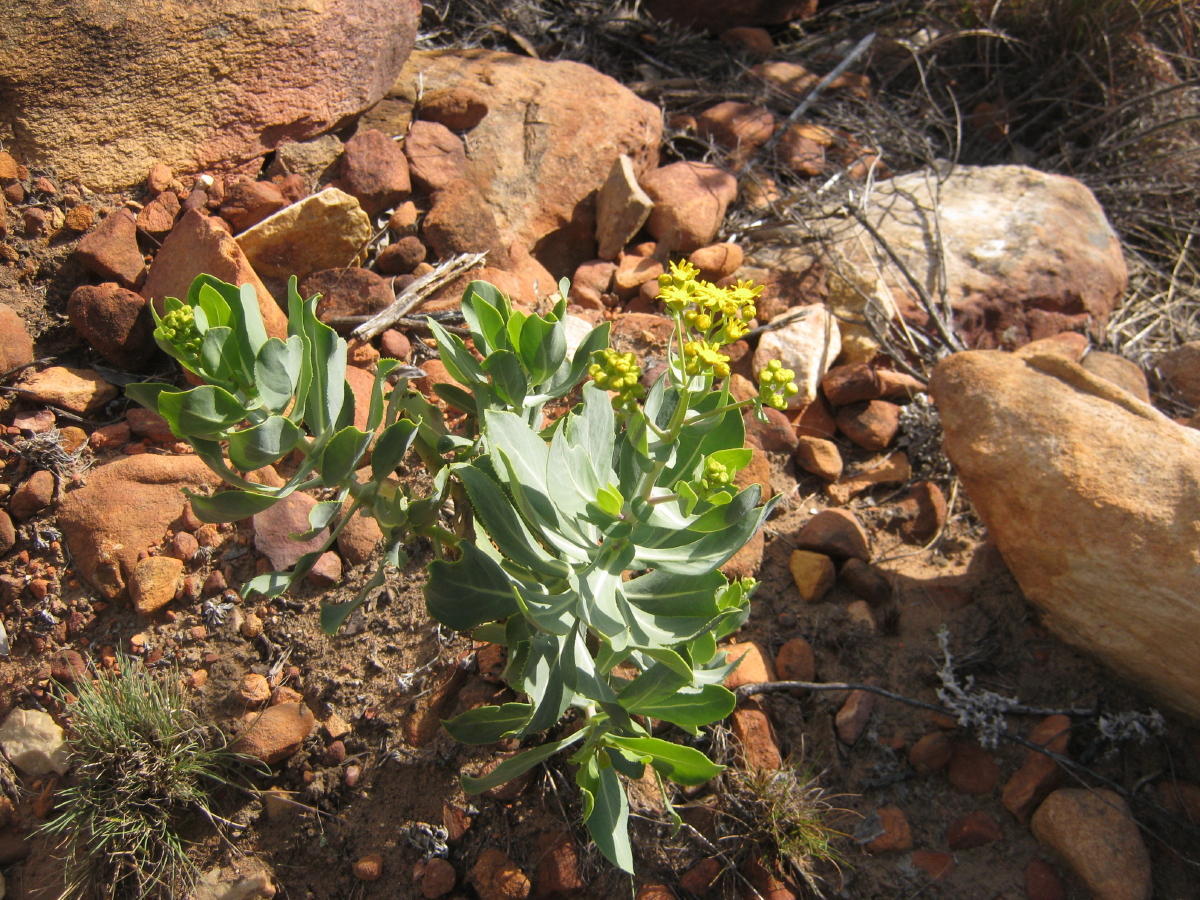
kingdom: Plantae
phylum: Tracheophyta
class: Magnoliopsida
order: Asterales
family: Asteraceae
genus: Othonna
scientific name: Othonna parviflora
